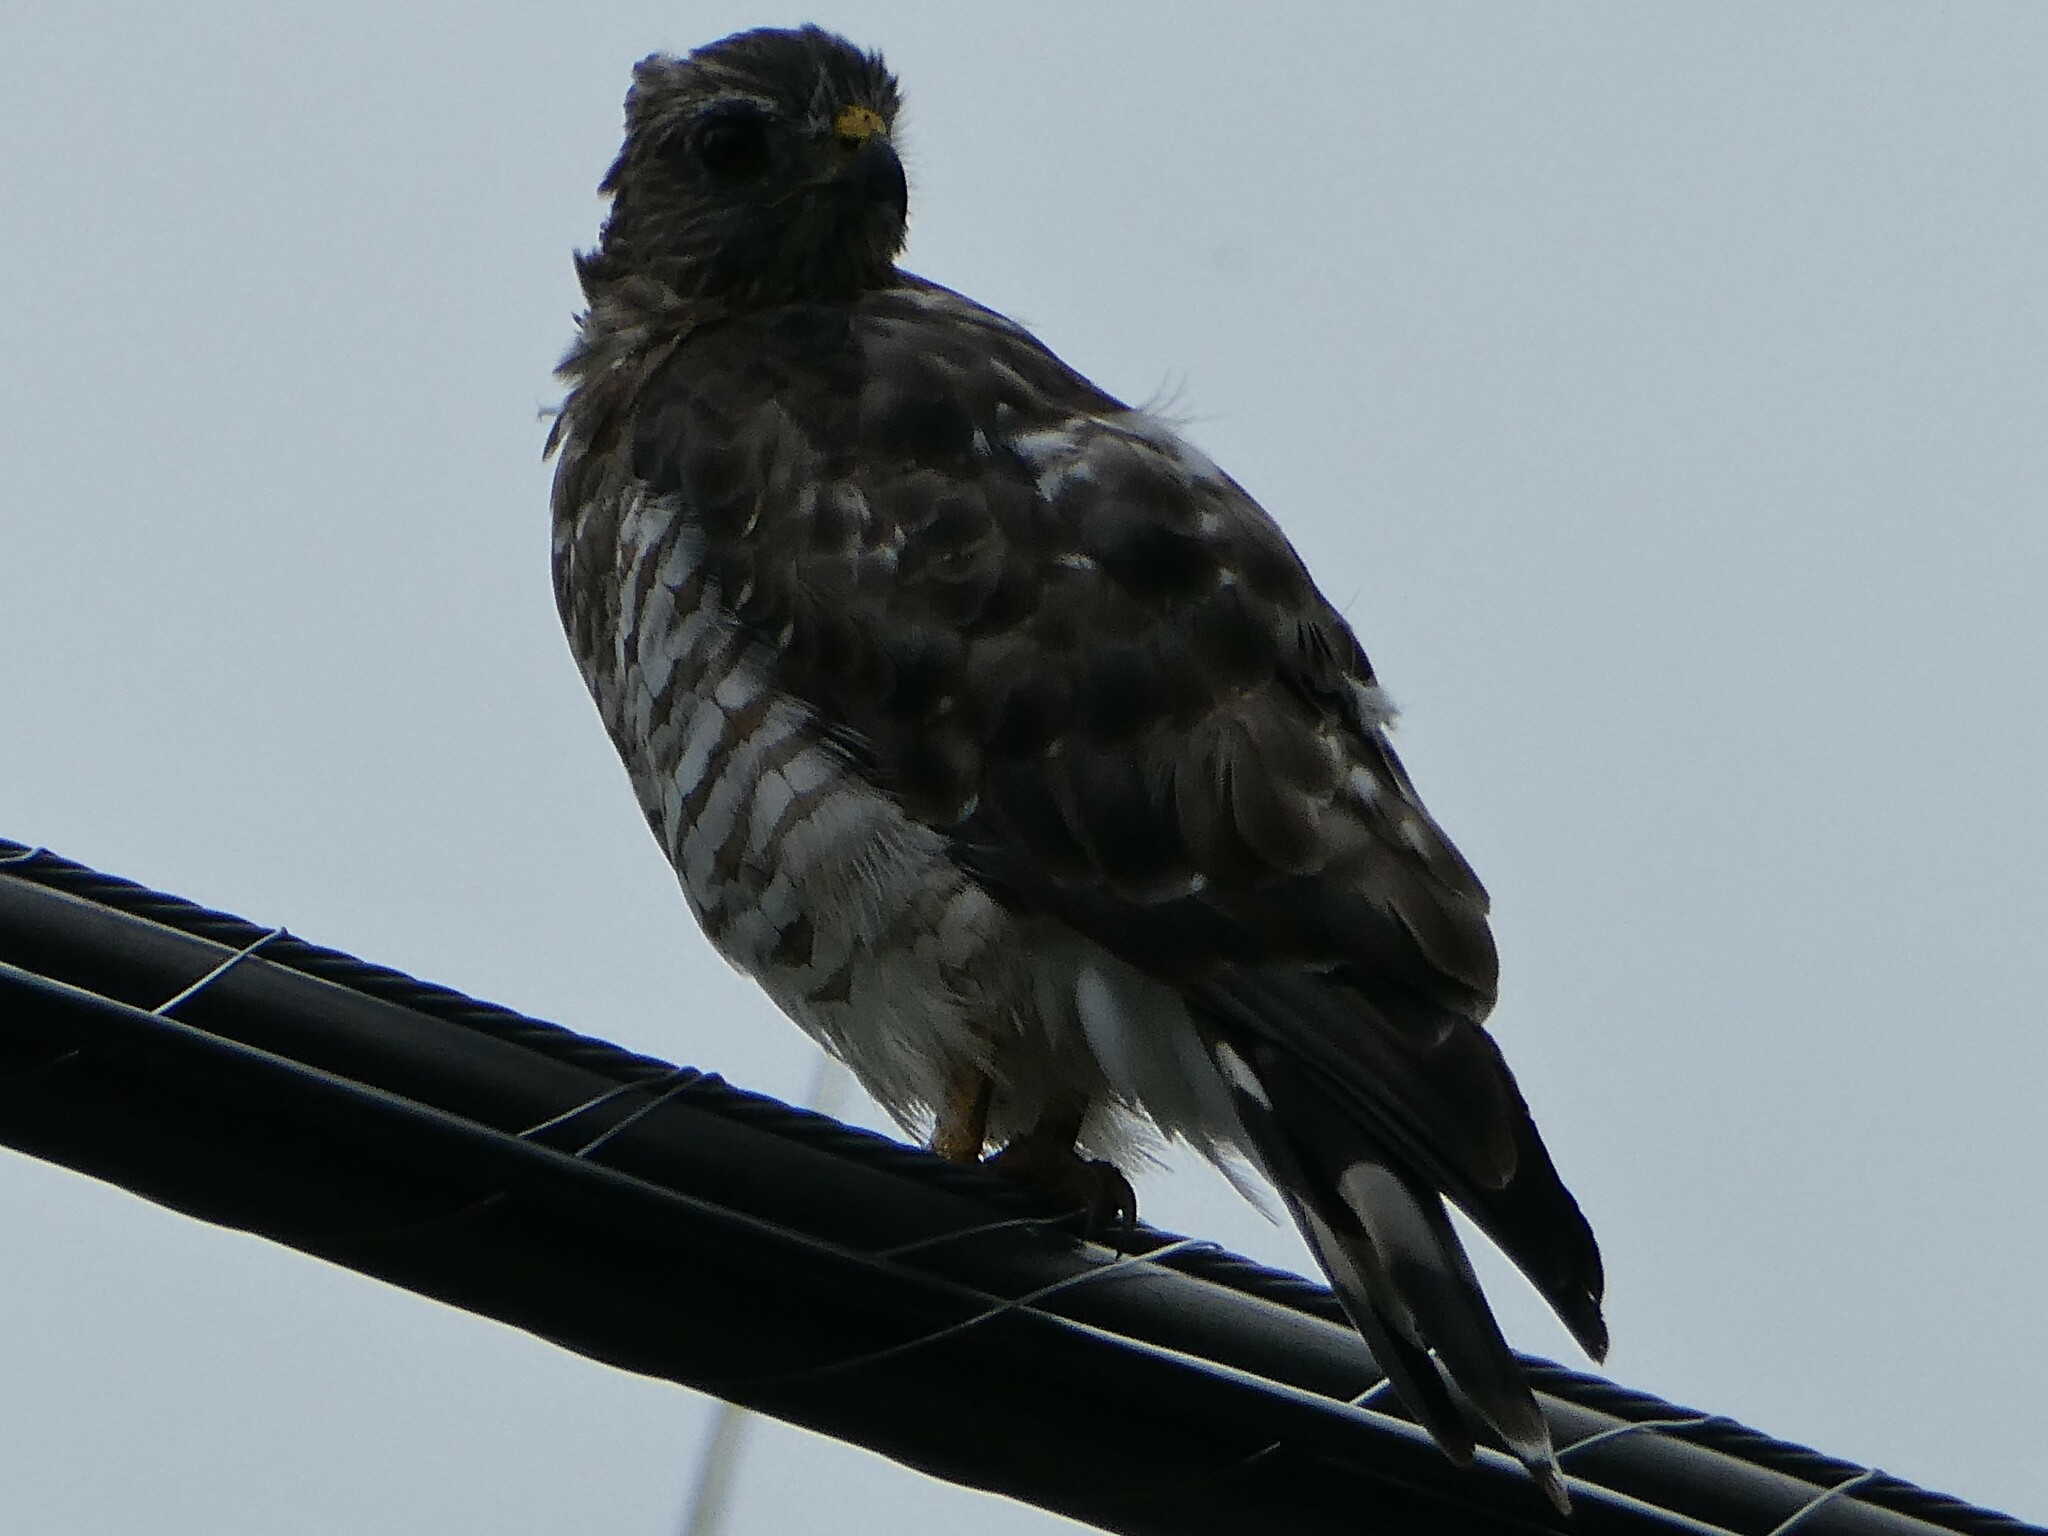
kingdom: Animalia
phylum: Chordata
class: Aves
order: Accipitriformes
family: Accipitridae
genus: Buteo
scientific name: Buteo platypterus
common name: Broad-winged hawk
